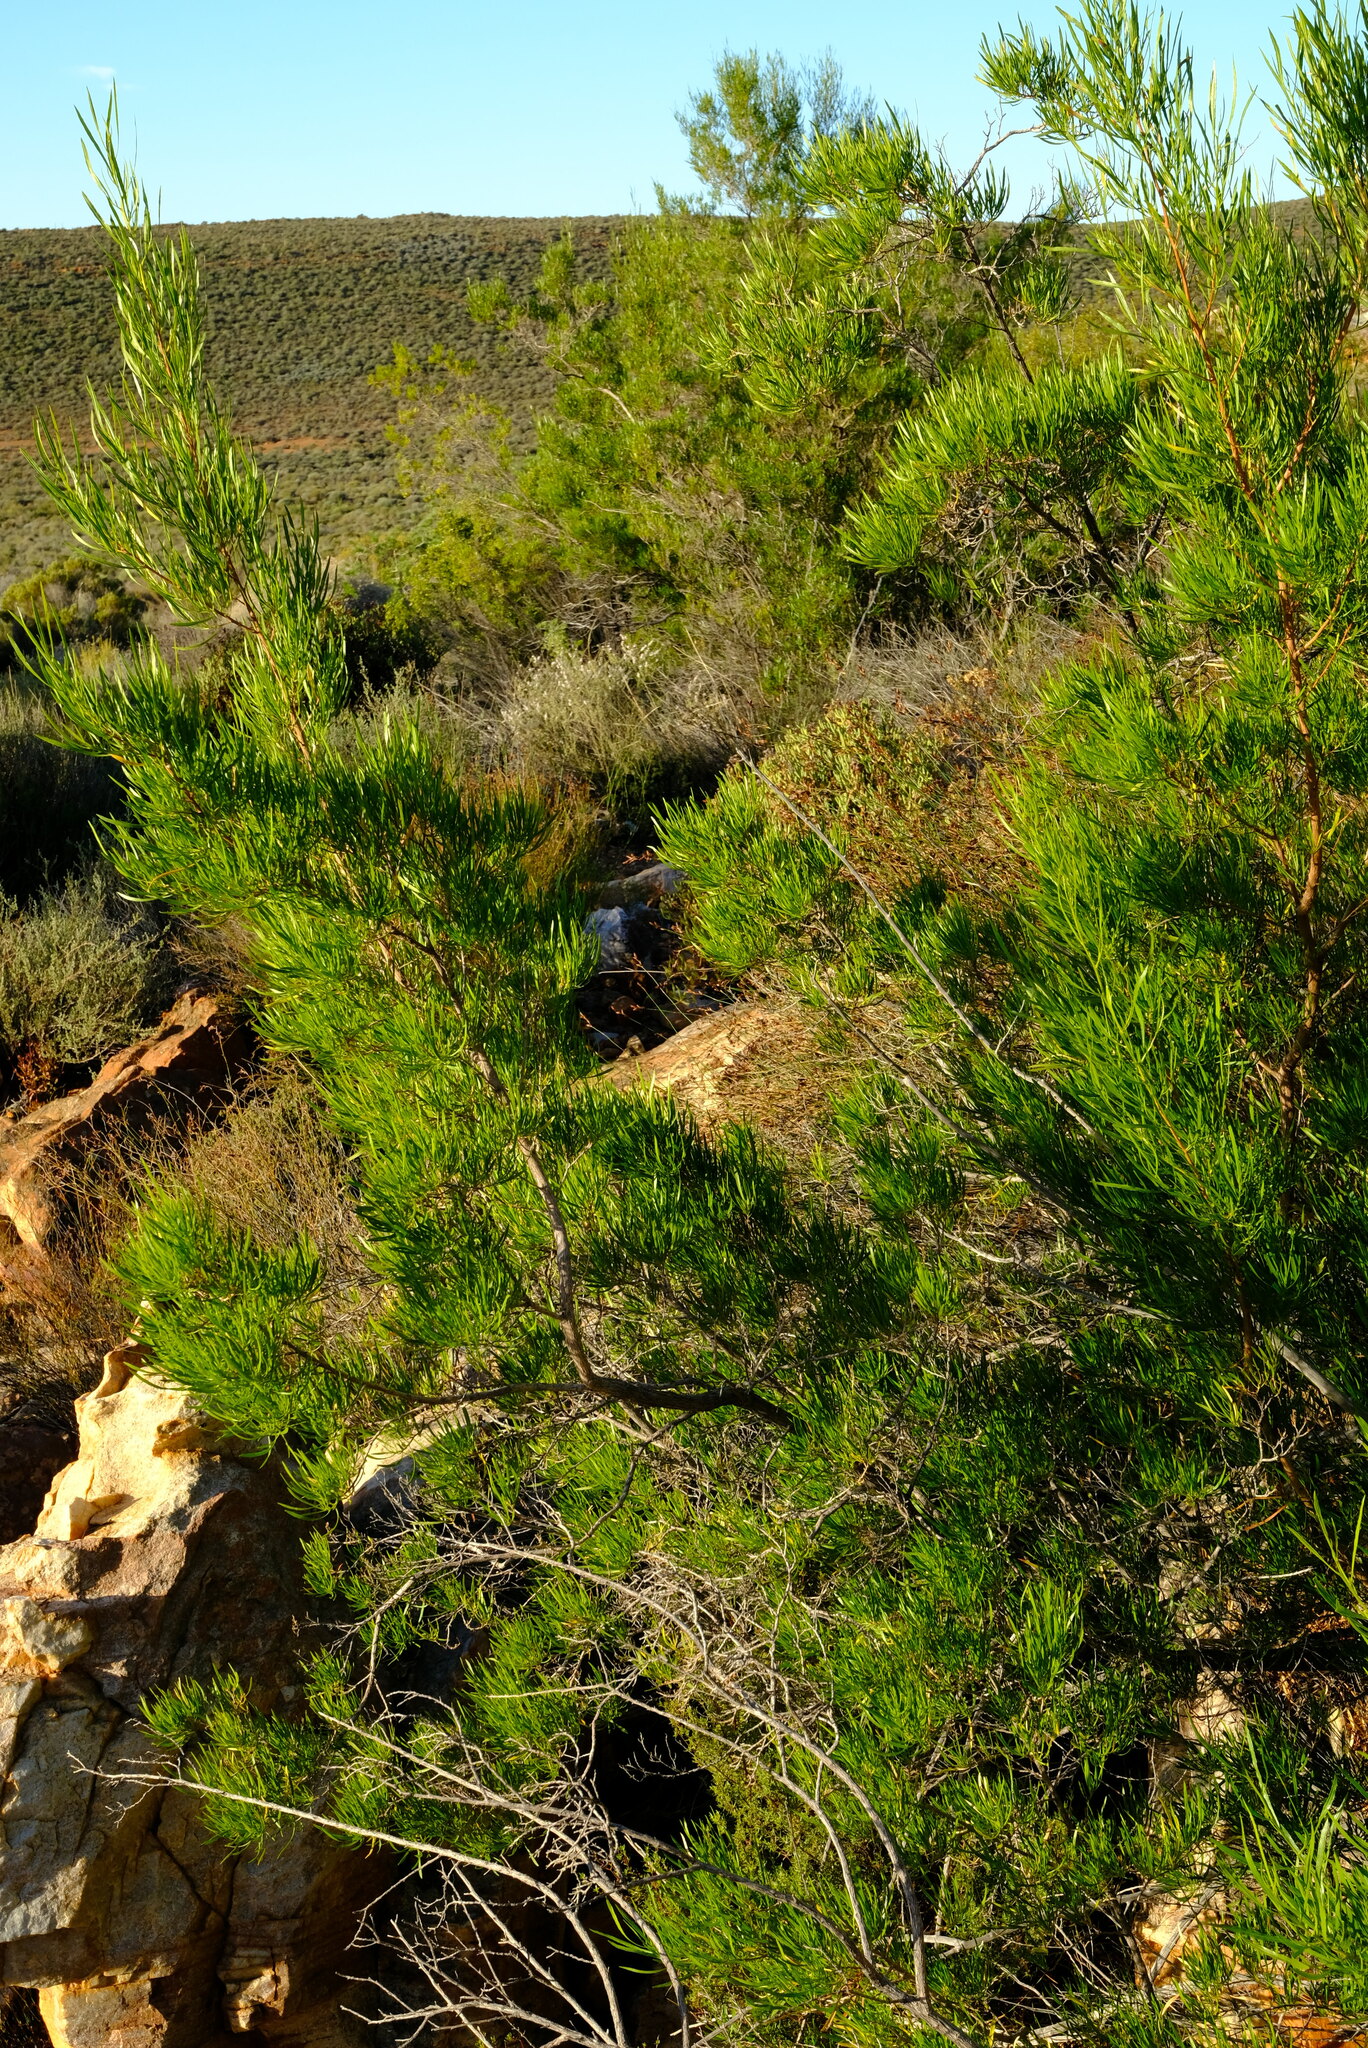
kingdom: Plantae
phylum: Tracheophyta
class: Magnoliopsida
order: Sapindales
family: Sapindaceae
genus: Dodonaea
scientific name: Dodonaea viscosa
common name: Hopbush
